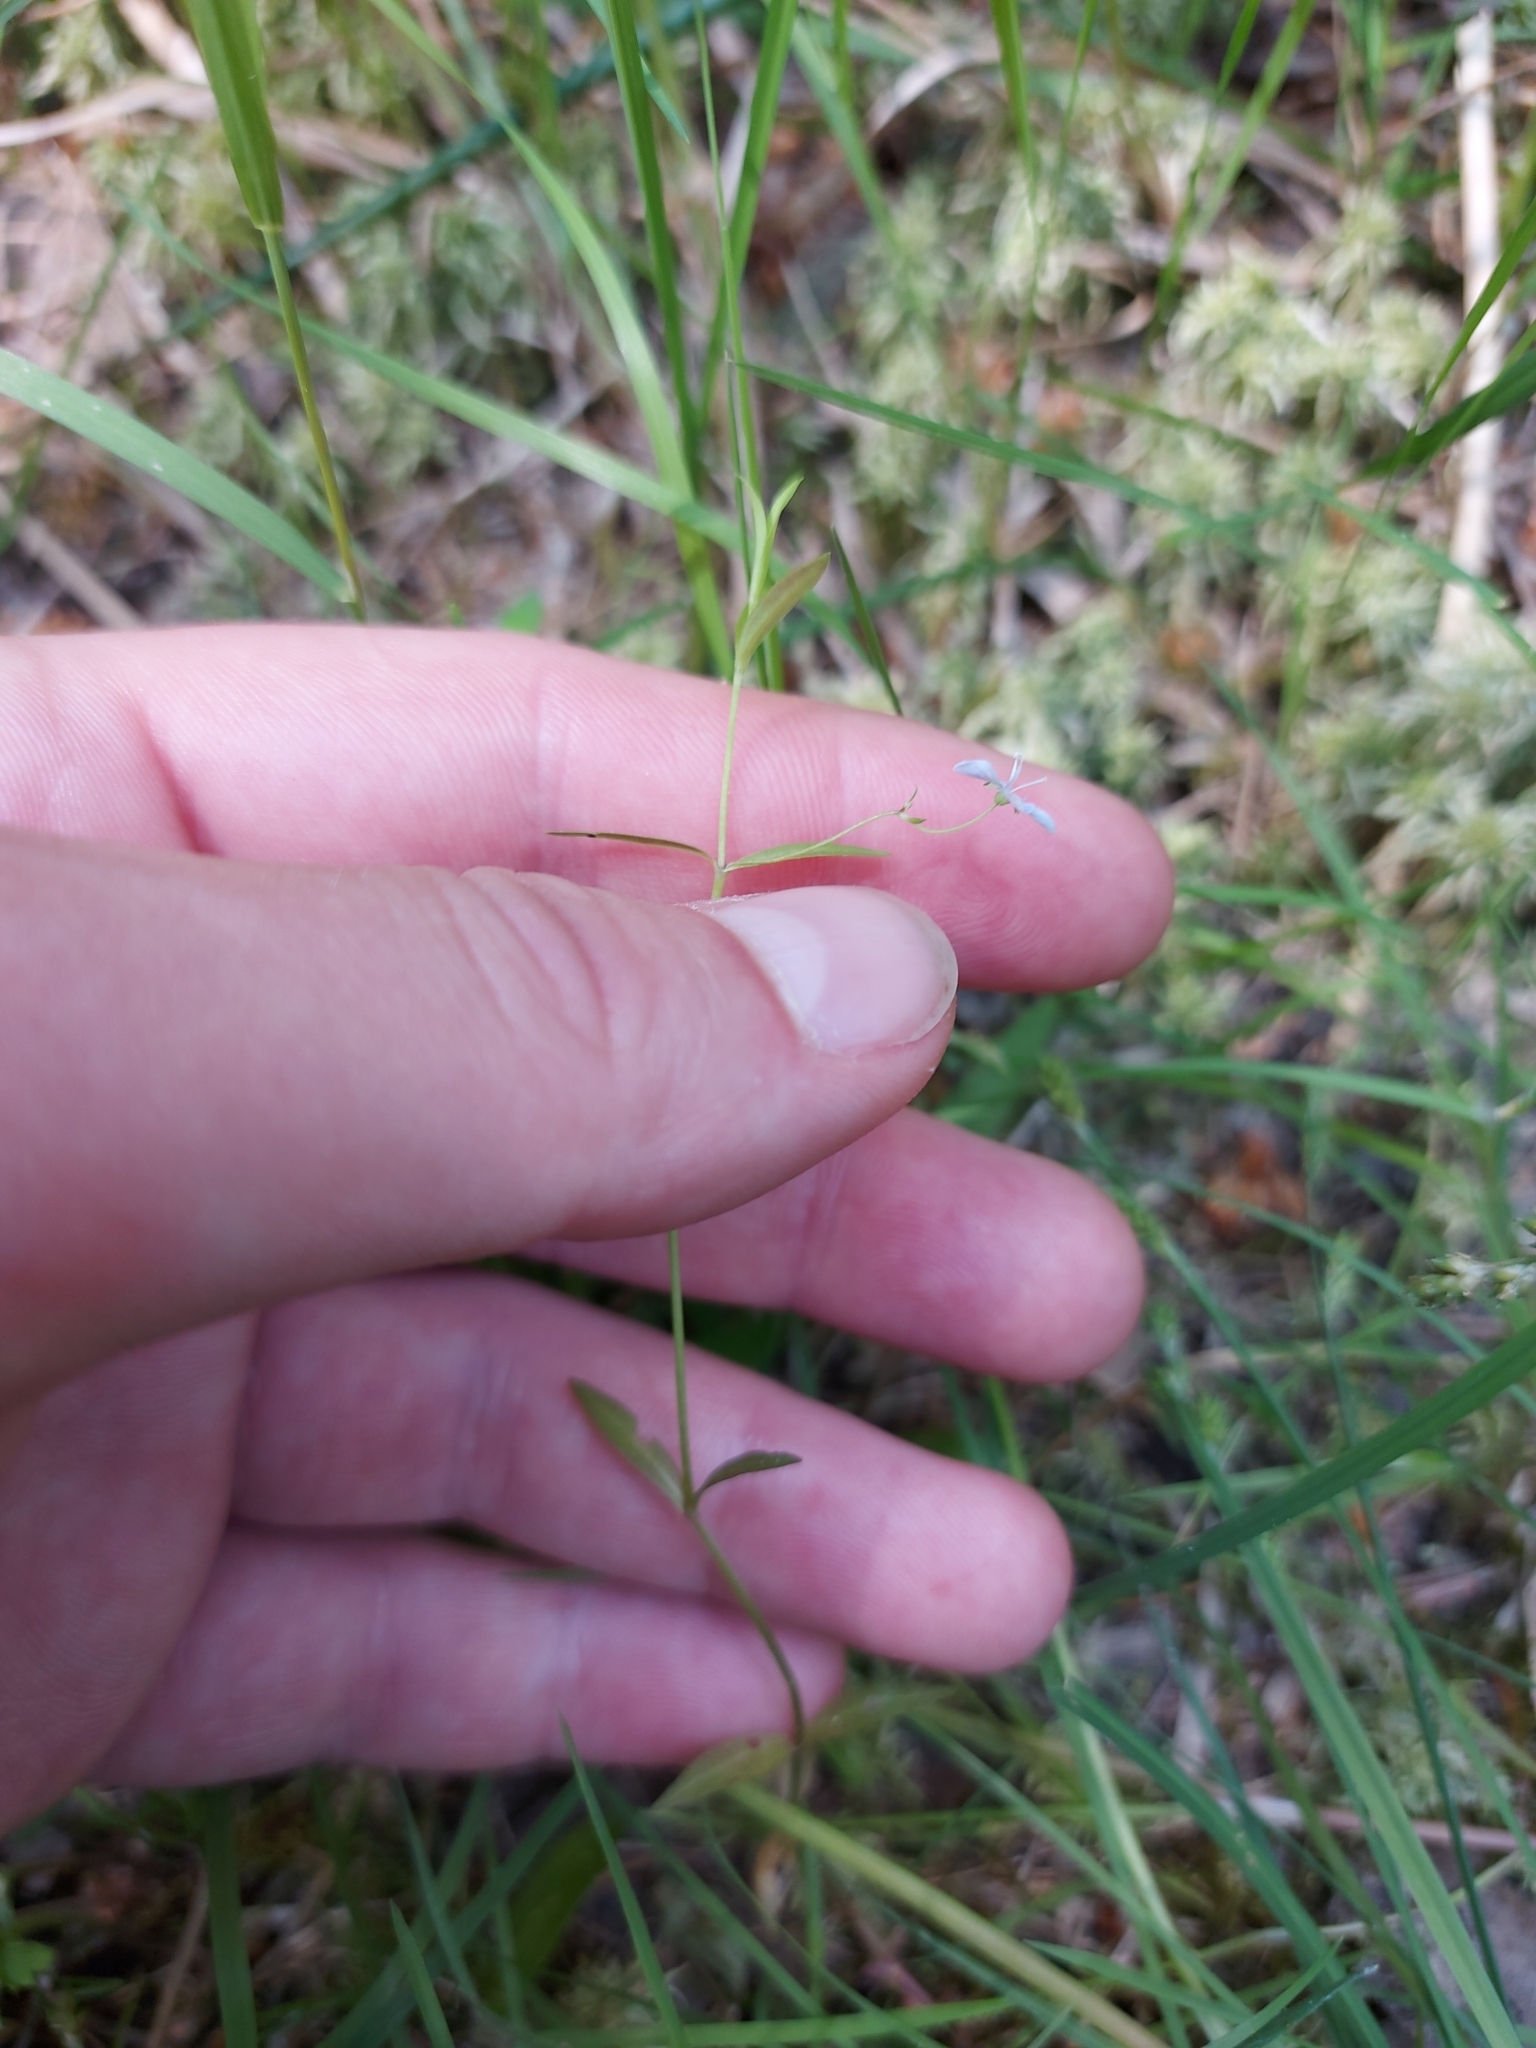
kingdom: Plantae
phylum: Tracheophyta
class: Magnoliopsida
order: Lamiales
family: Plantaginaceae
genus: Veronica
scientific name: Veronica scutellata
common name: Marsh speedwell
